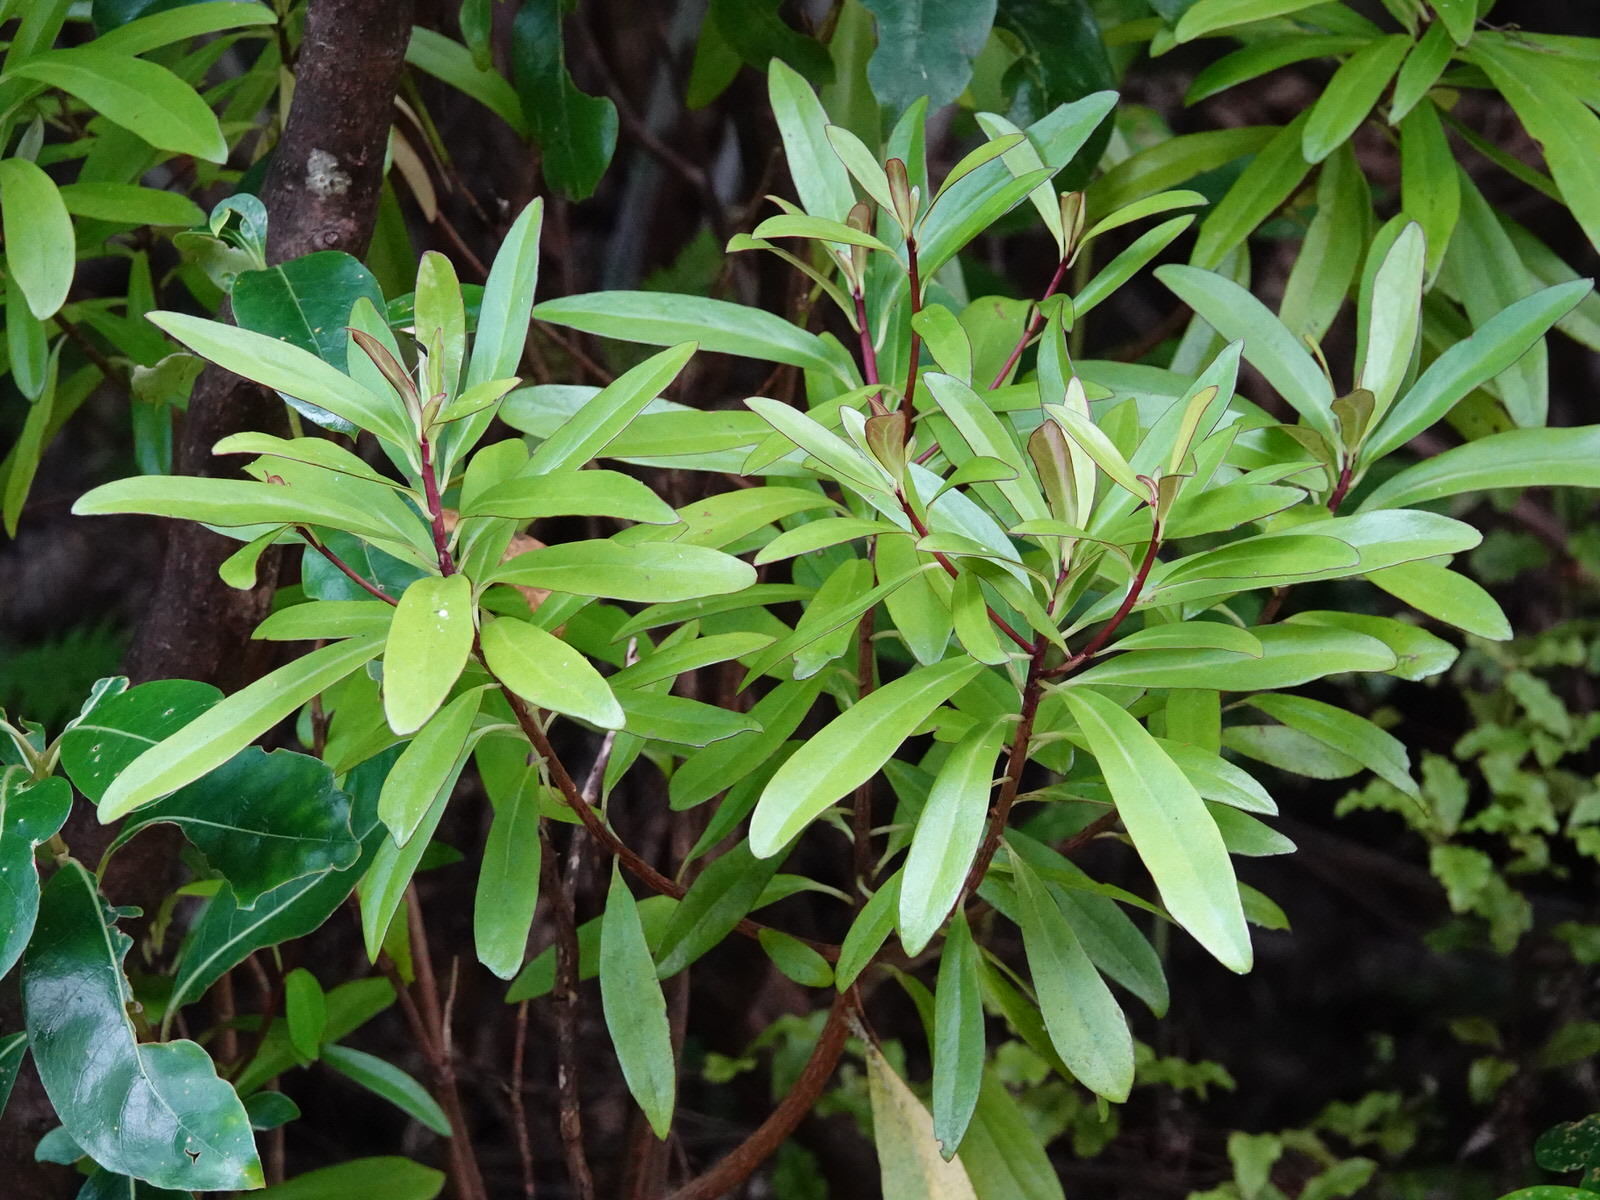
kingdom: Plantae
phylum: Tracheophyta
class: Magnoliopsida
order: Asterales
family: Asteraceae
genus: Brachyglottis
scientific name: Brachyglottis kirkii
